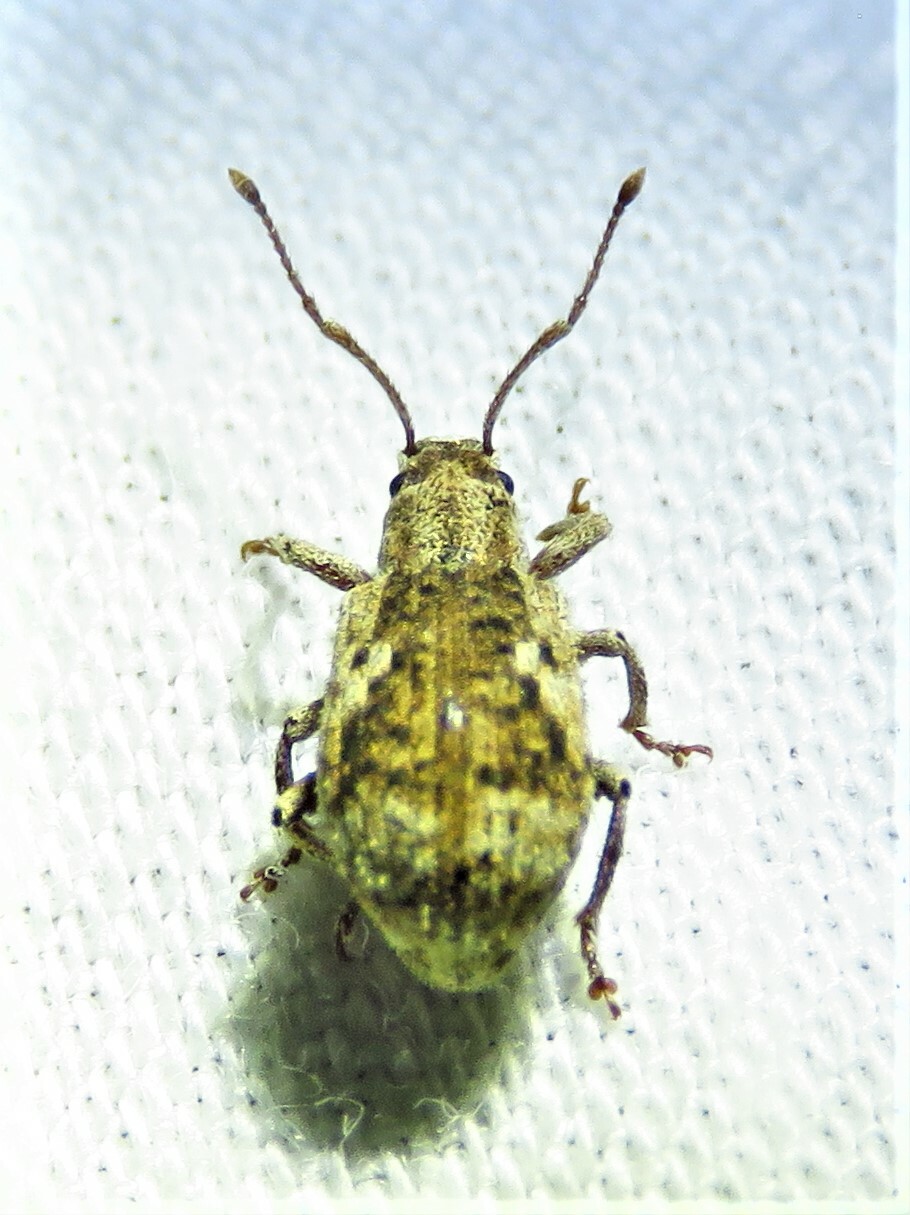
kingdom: Animalia
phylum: Arthropoda
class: Insecta
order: Coleoptera
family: Curculionidae
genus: Pseudoedophrys
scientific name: Pseudoedophrys hilleri
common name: Weevil
